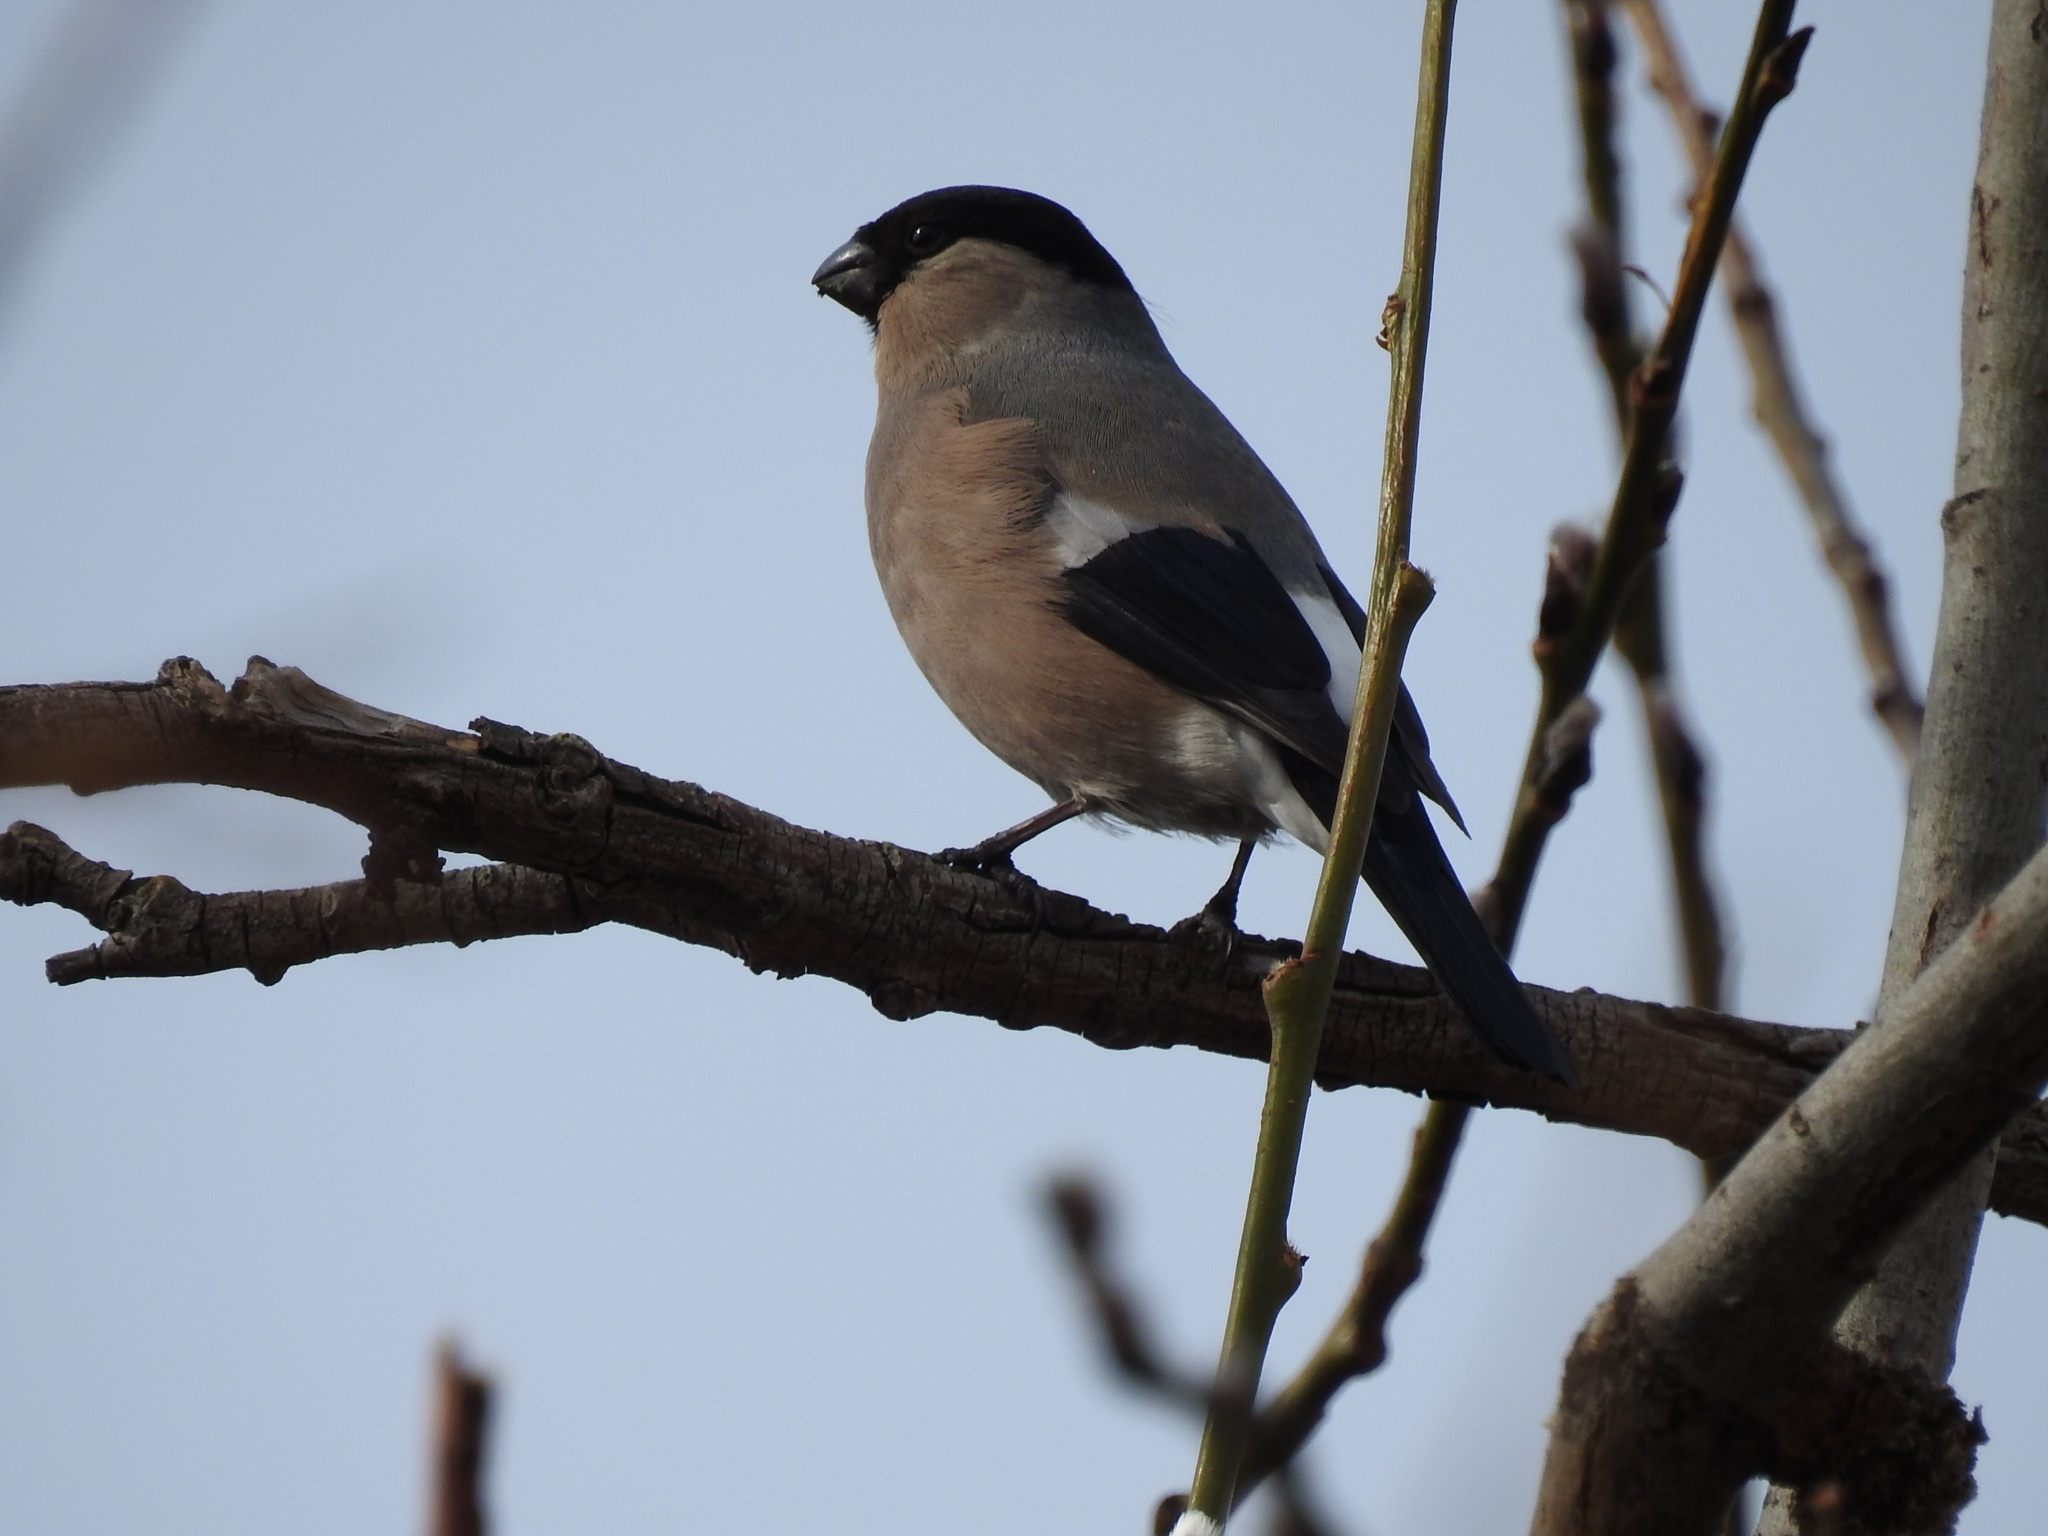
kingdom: Animalia
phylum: Chordata
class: Aves
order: Passeriformes
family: Fringillidae
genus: Pyrrhula
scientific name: Pyrrhula pyrrhula
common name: Eurasian bullfinch
